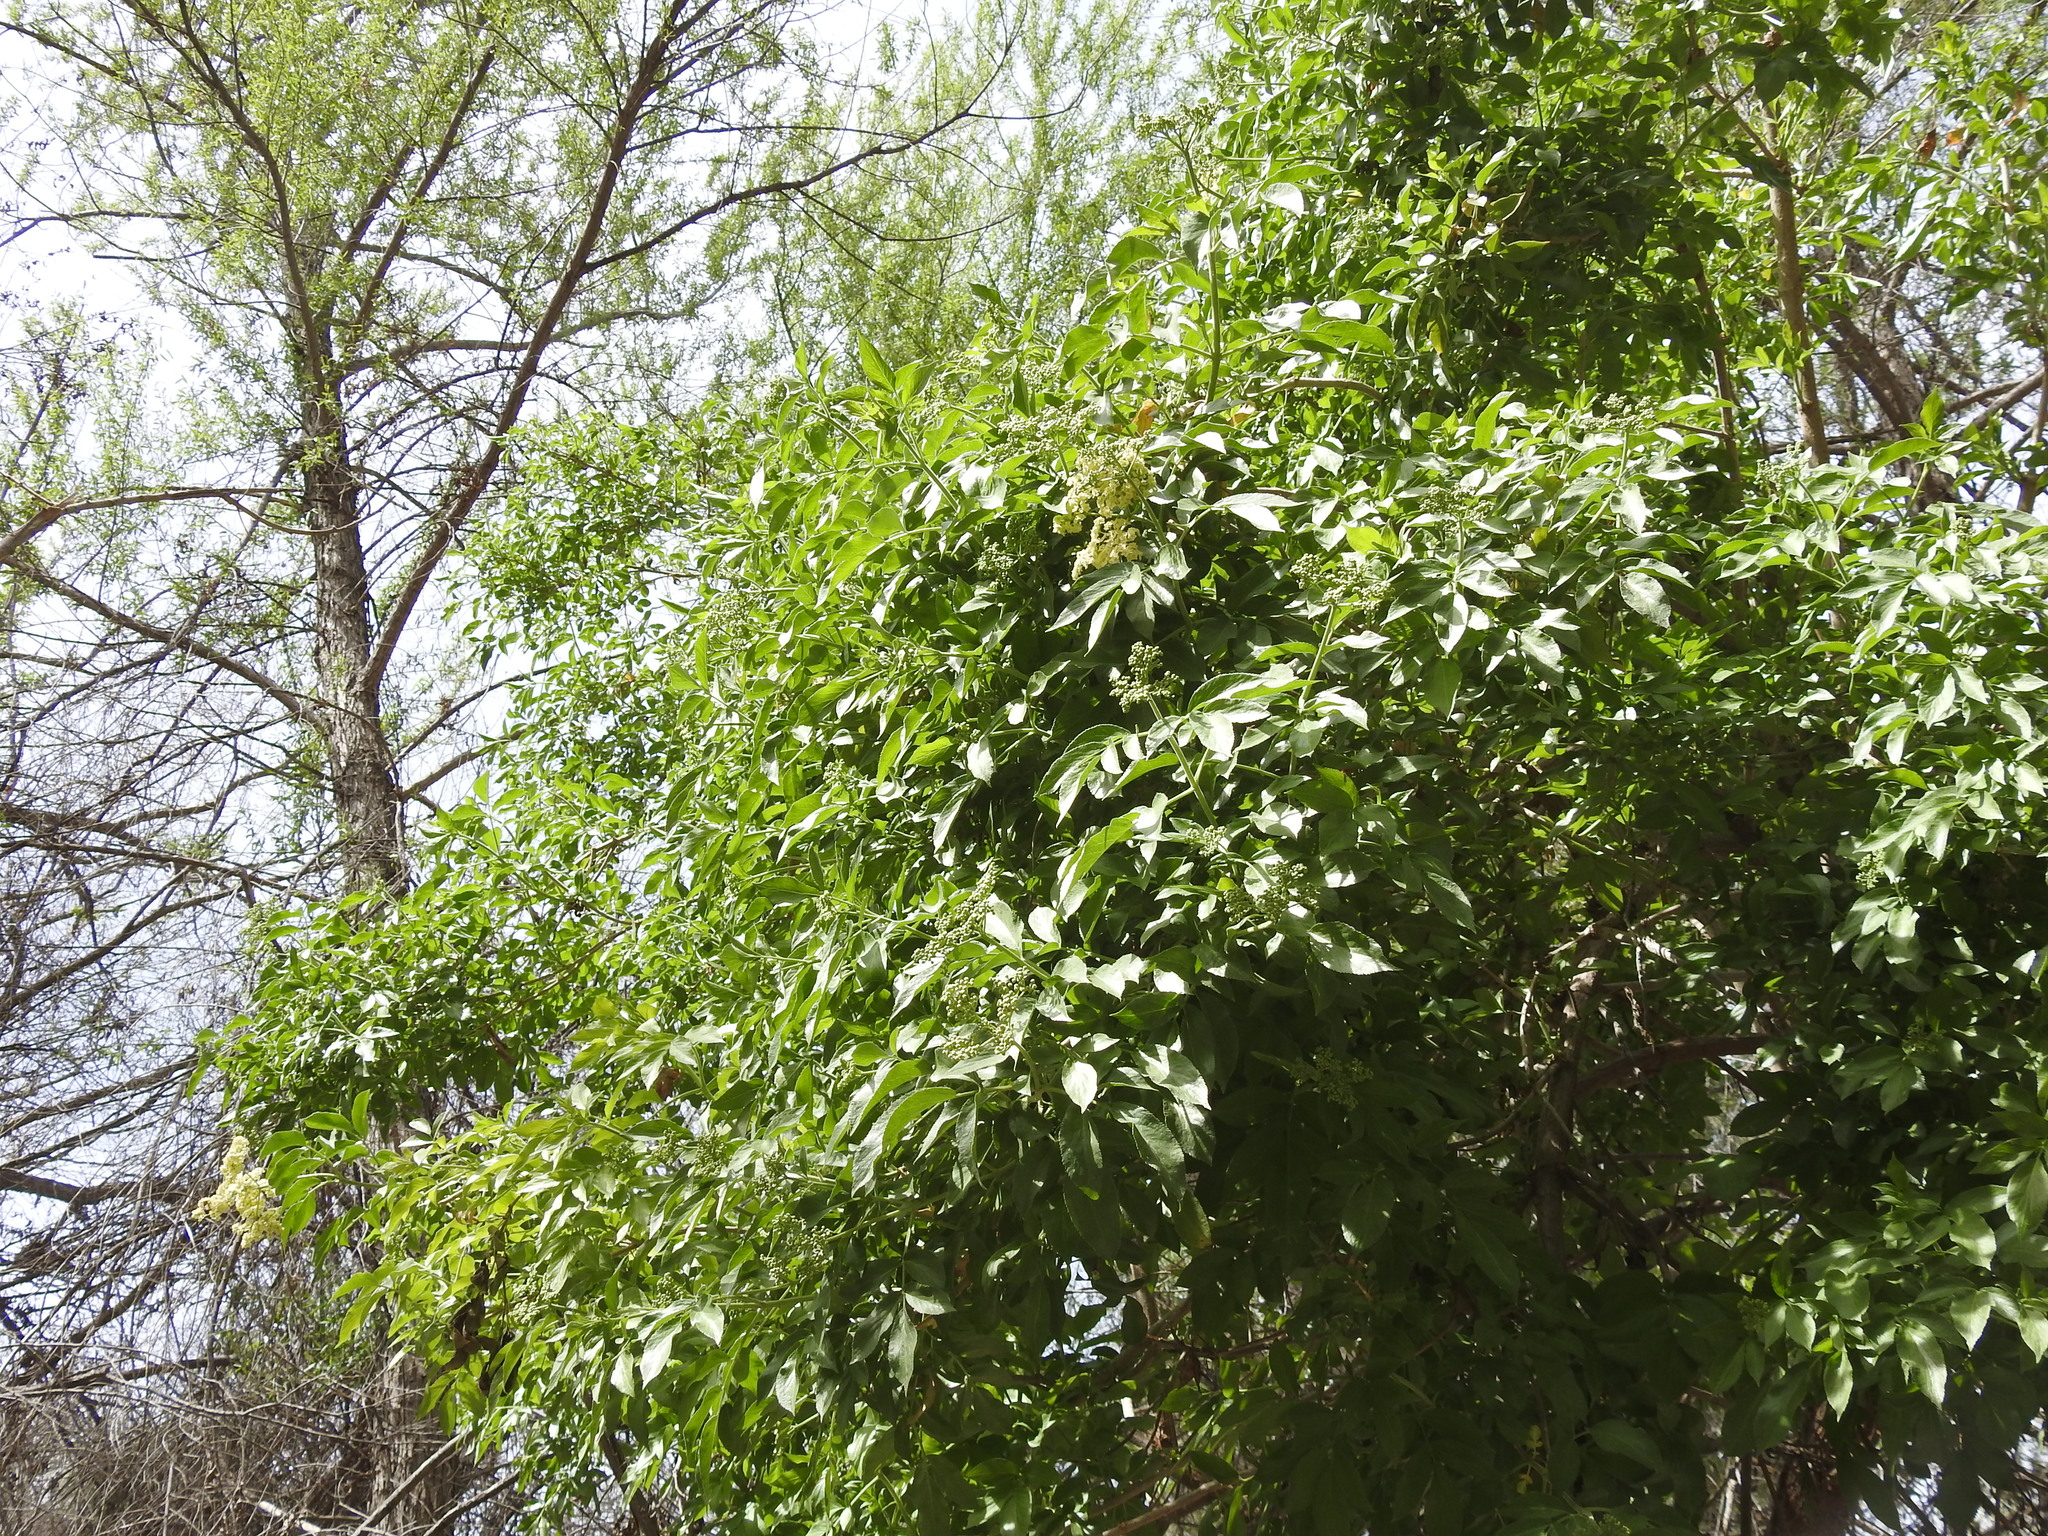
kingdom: Plantae
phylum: Tracheophyta
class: Magnoliopsida
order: Dipsacales
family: Viburnaceae
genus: Sambucus
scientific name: Sambucus cerulea
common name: Blue elder
